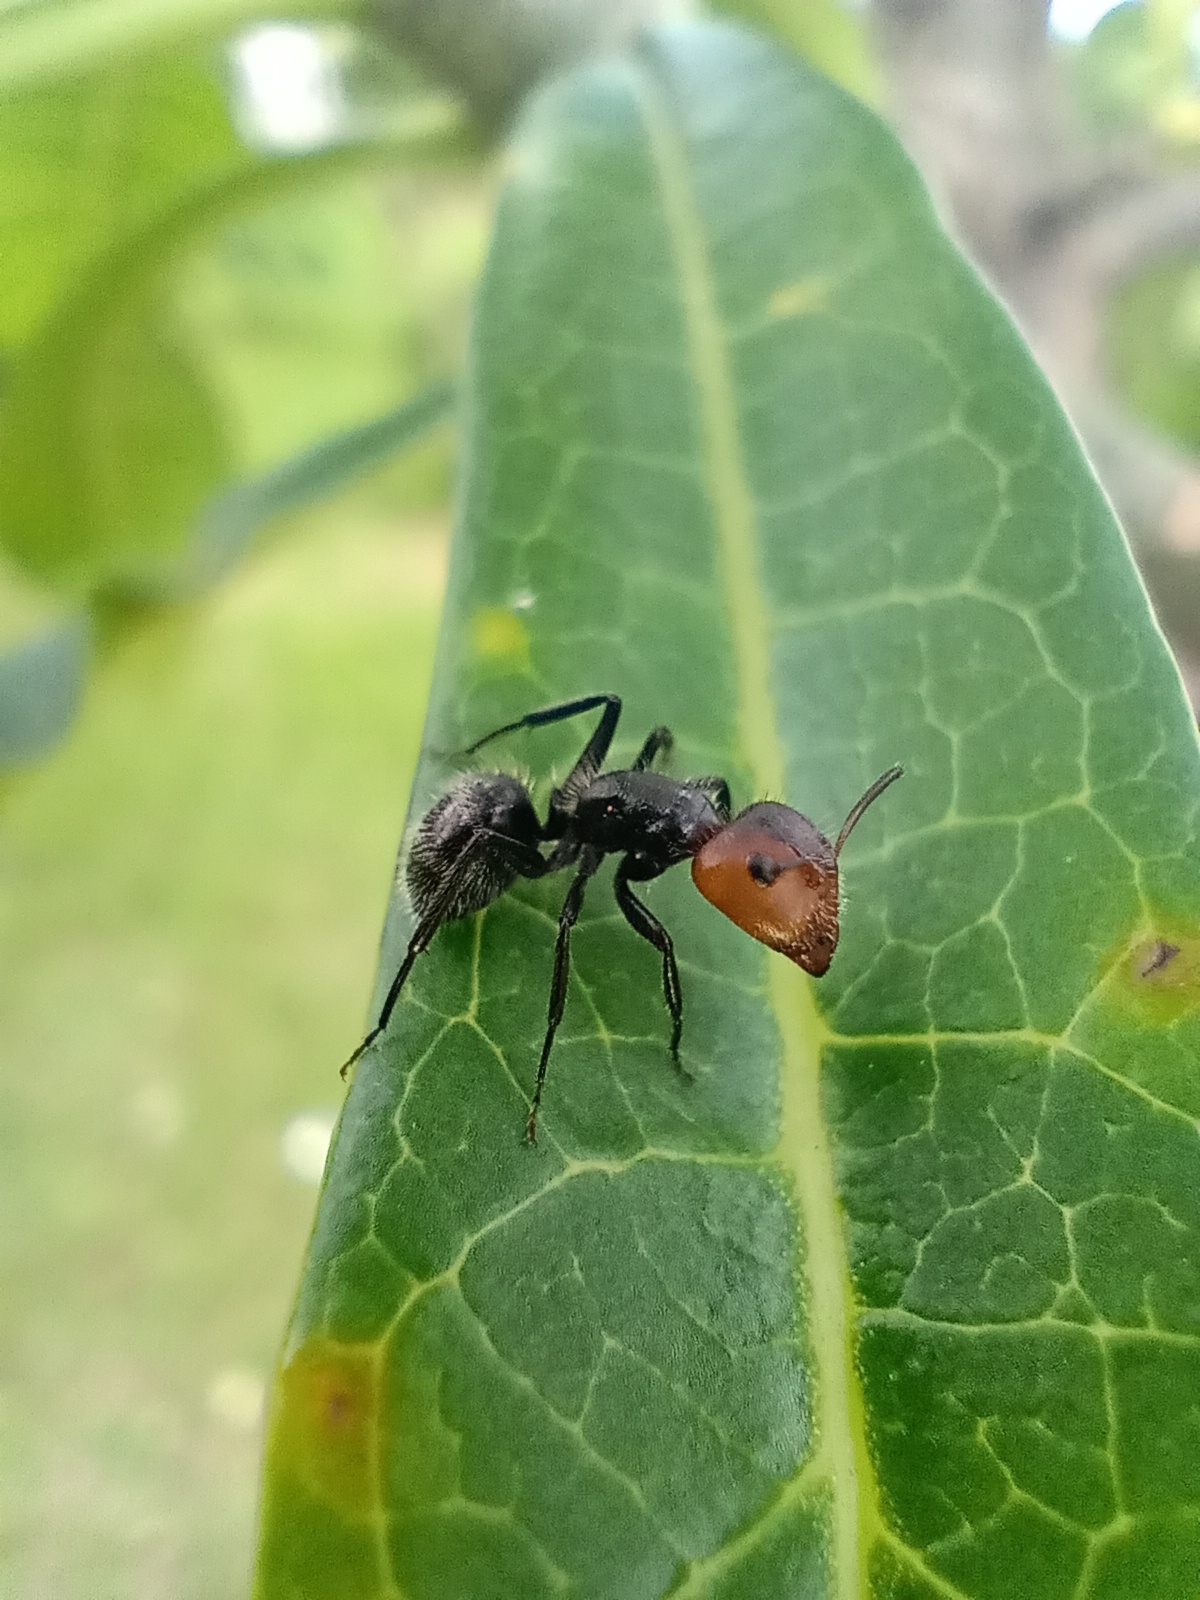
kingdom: Animalia
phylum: Arthropoda
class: Insecta
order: Hymenoptera
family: Formicidae
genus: Camponotus
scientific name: Camponotus lindigi
